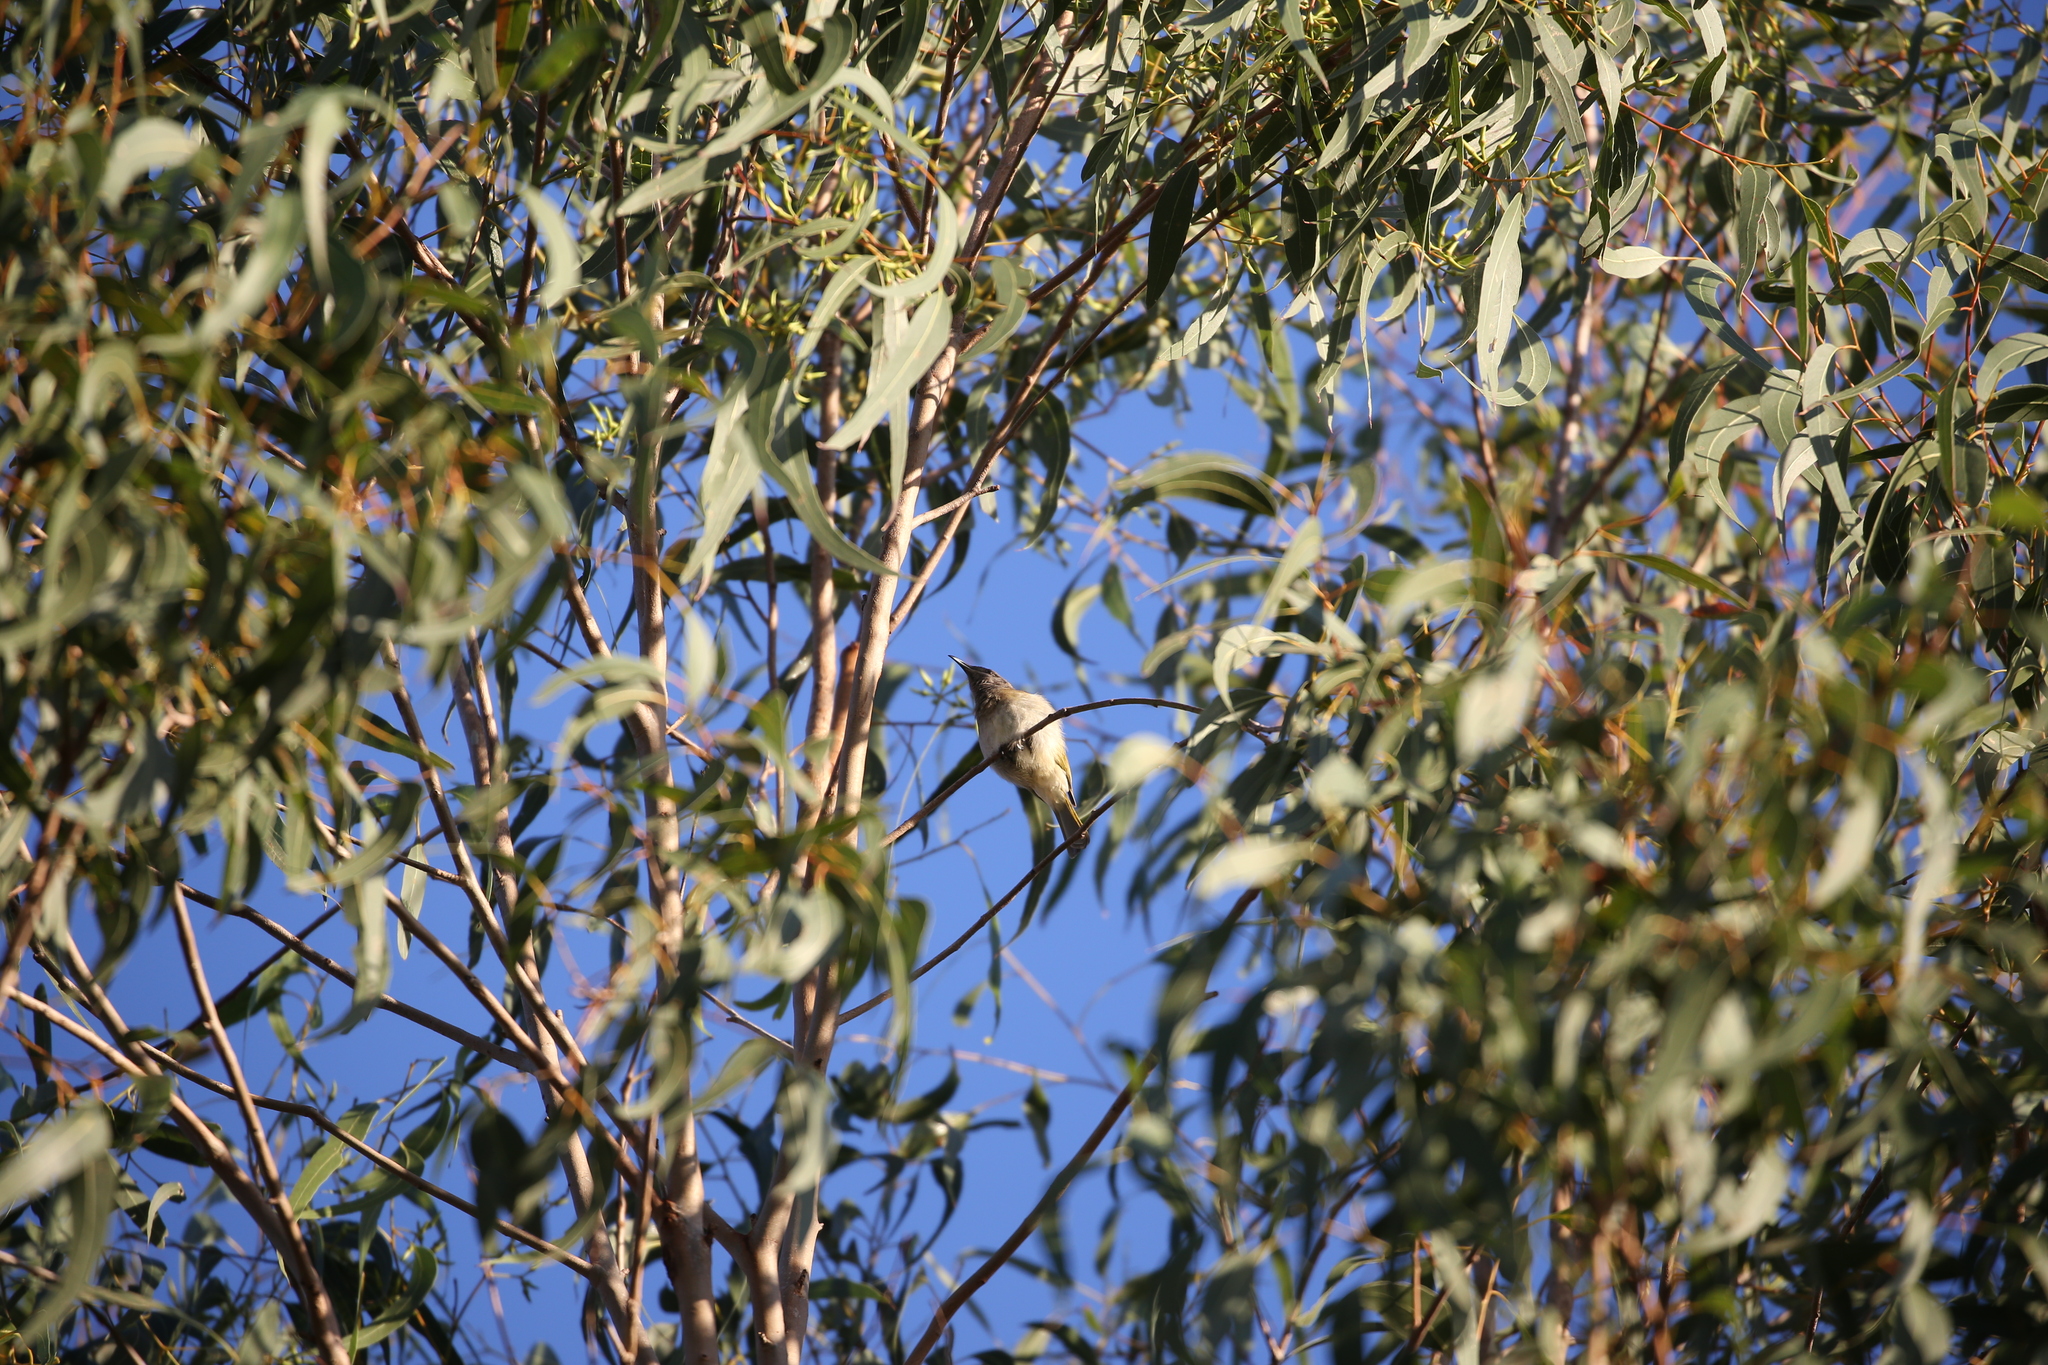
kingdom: Animalia
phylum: Chordata
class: Aves
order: Passeriformes
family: Meliphagidae
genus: Lichmera
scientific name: Lichmera indistincta
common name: Brown honeyeater
